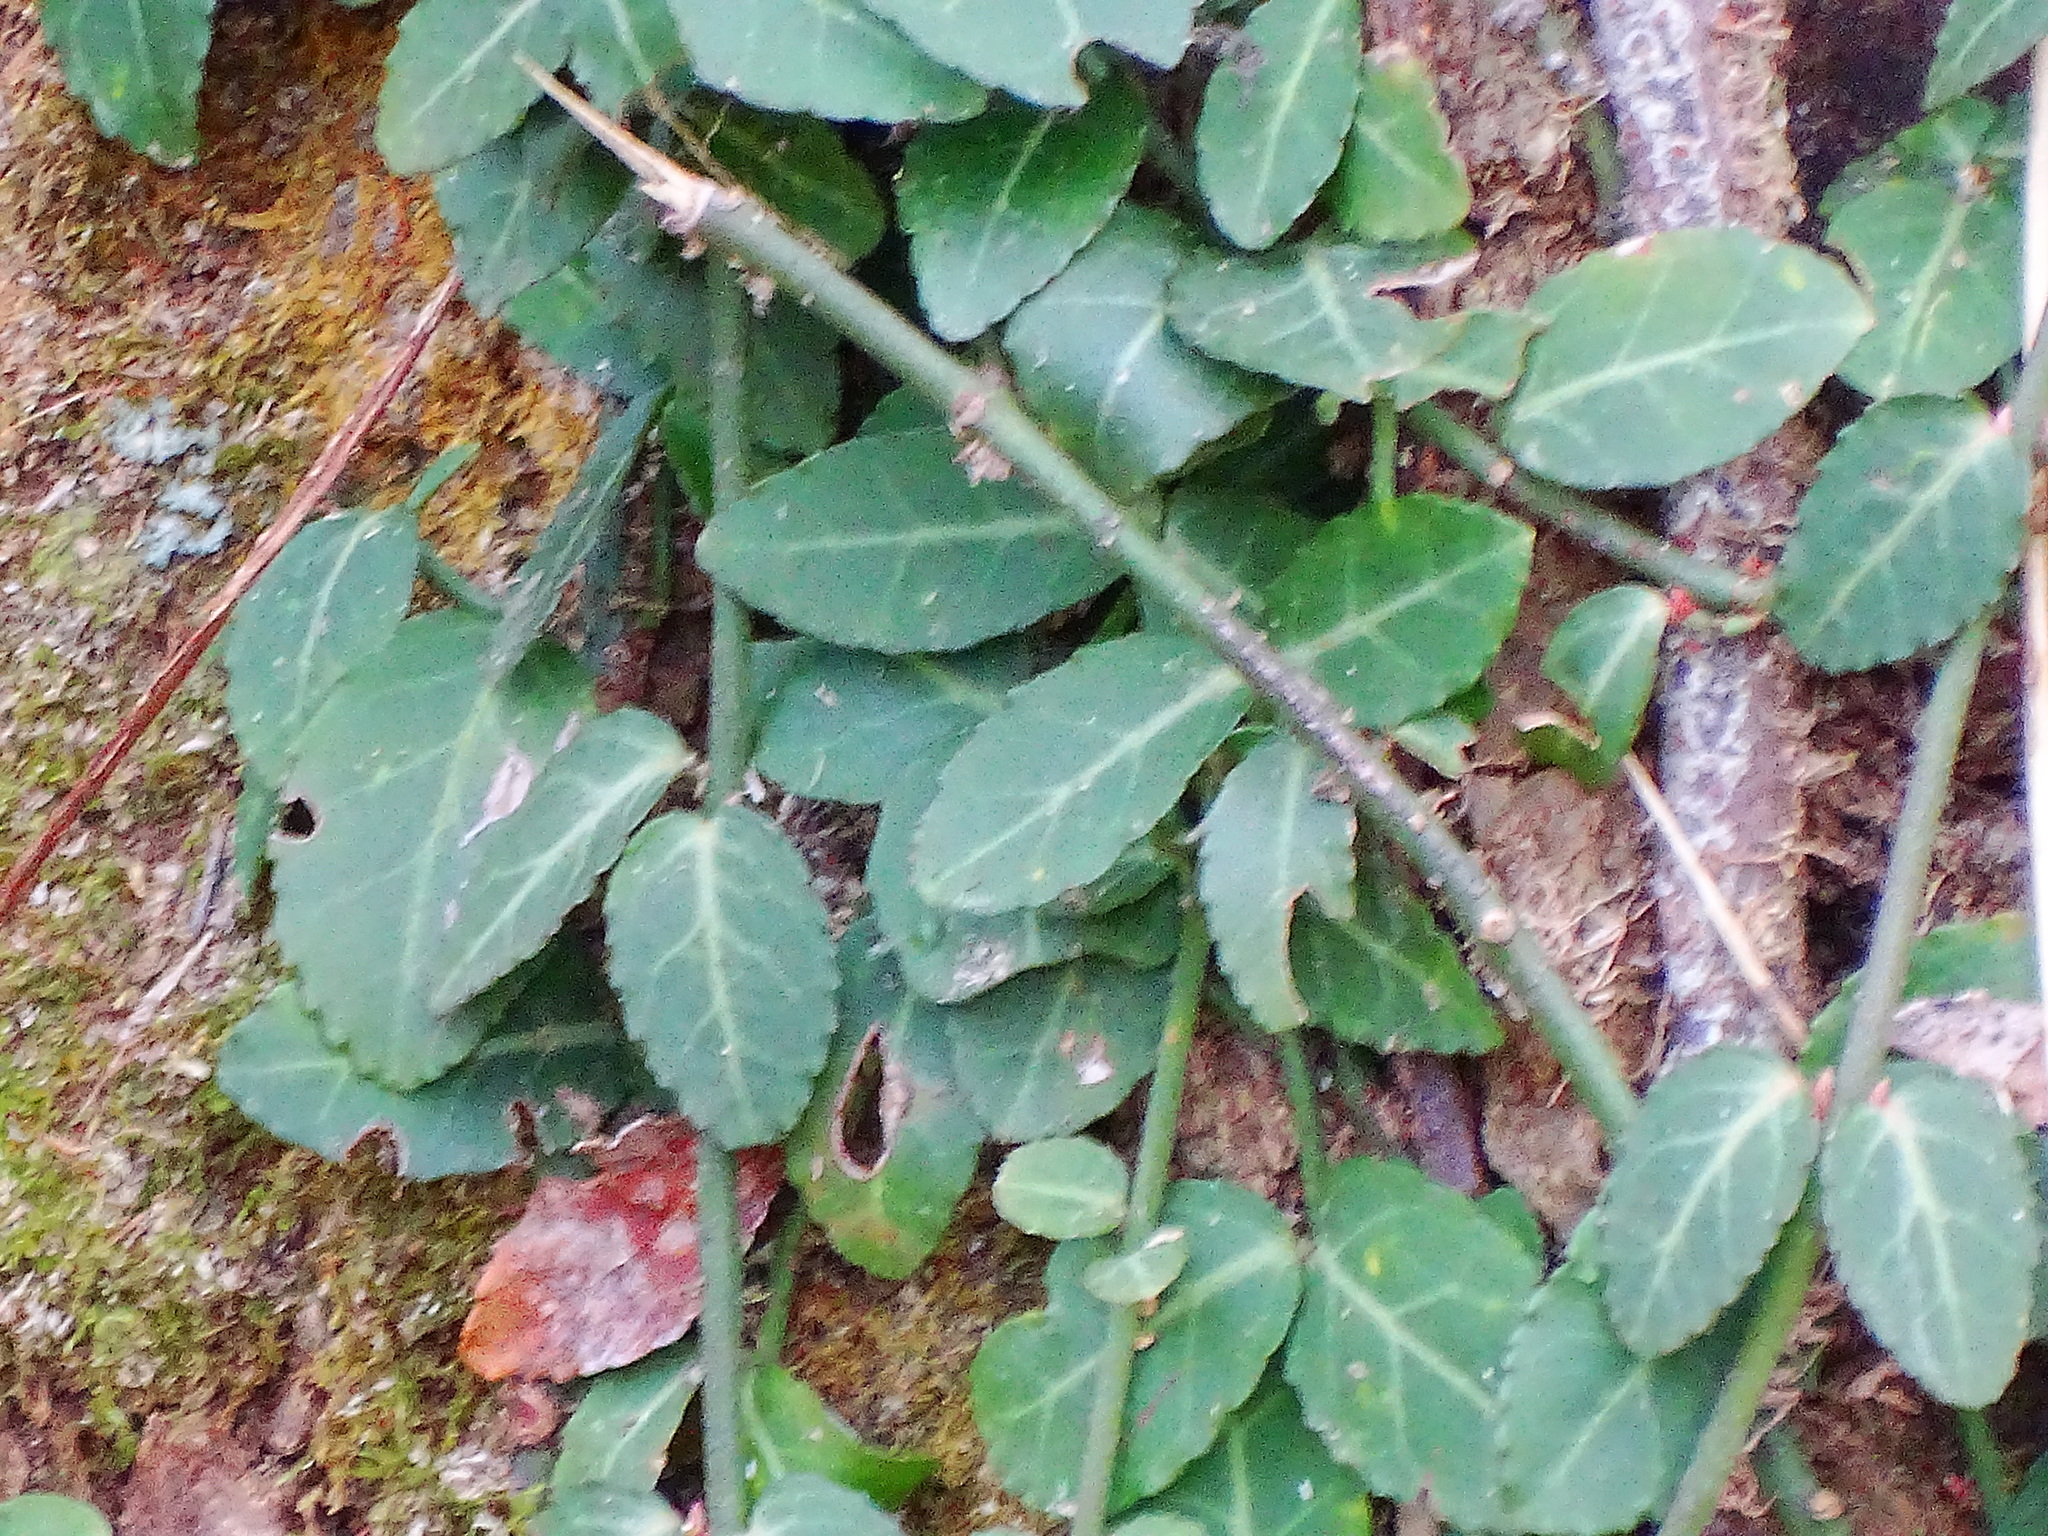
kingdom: Plantae
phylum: Tracheophyta
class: Magnoliopsida
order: Celastrales
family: Celastraceae
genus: Euonymus
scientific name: Euonymus fortunei
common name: Climbing euonymus
